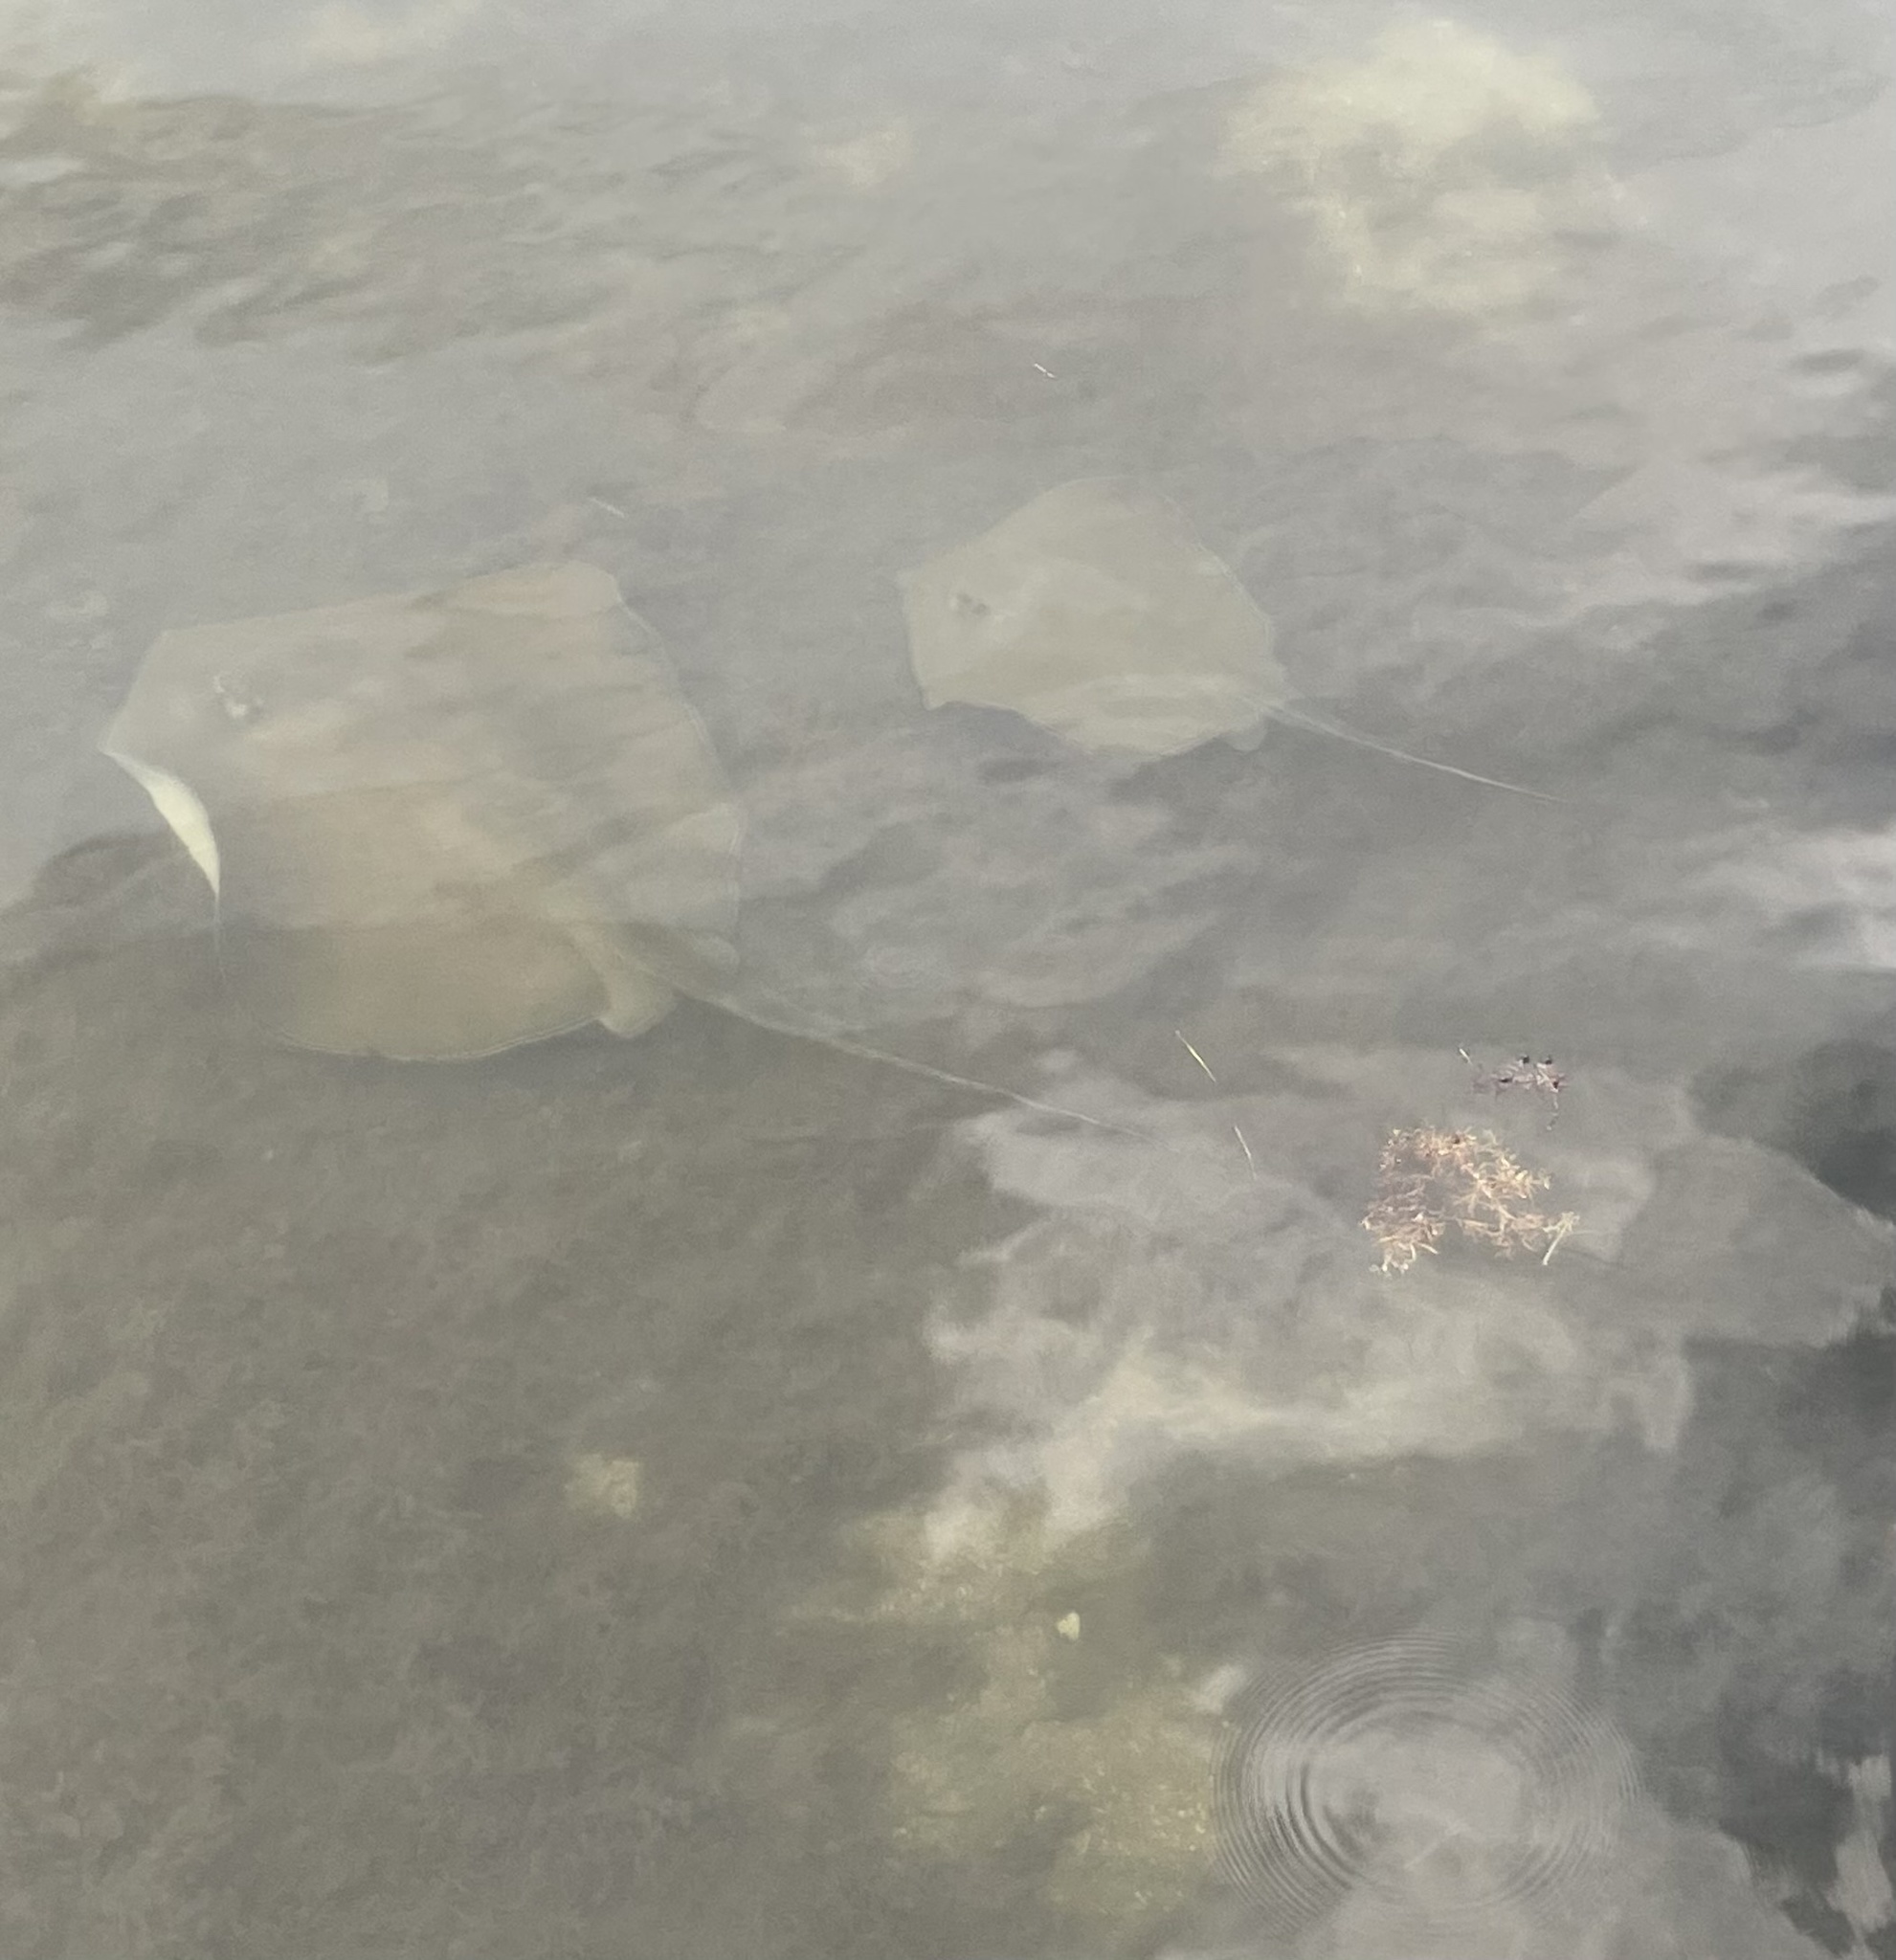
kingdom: Animalia
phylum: Chordata
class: Elasmobranchii
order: Myliobatiformes
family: Dasyatidae
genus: Hypanus
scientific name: Hypanus americanus
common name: Southern stingray
